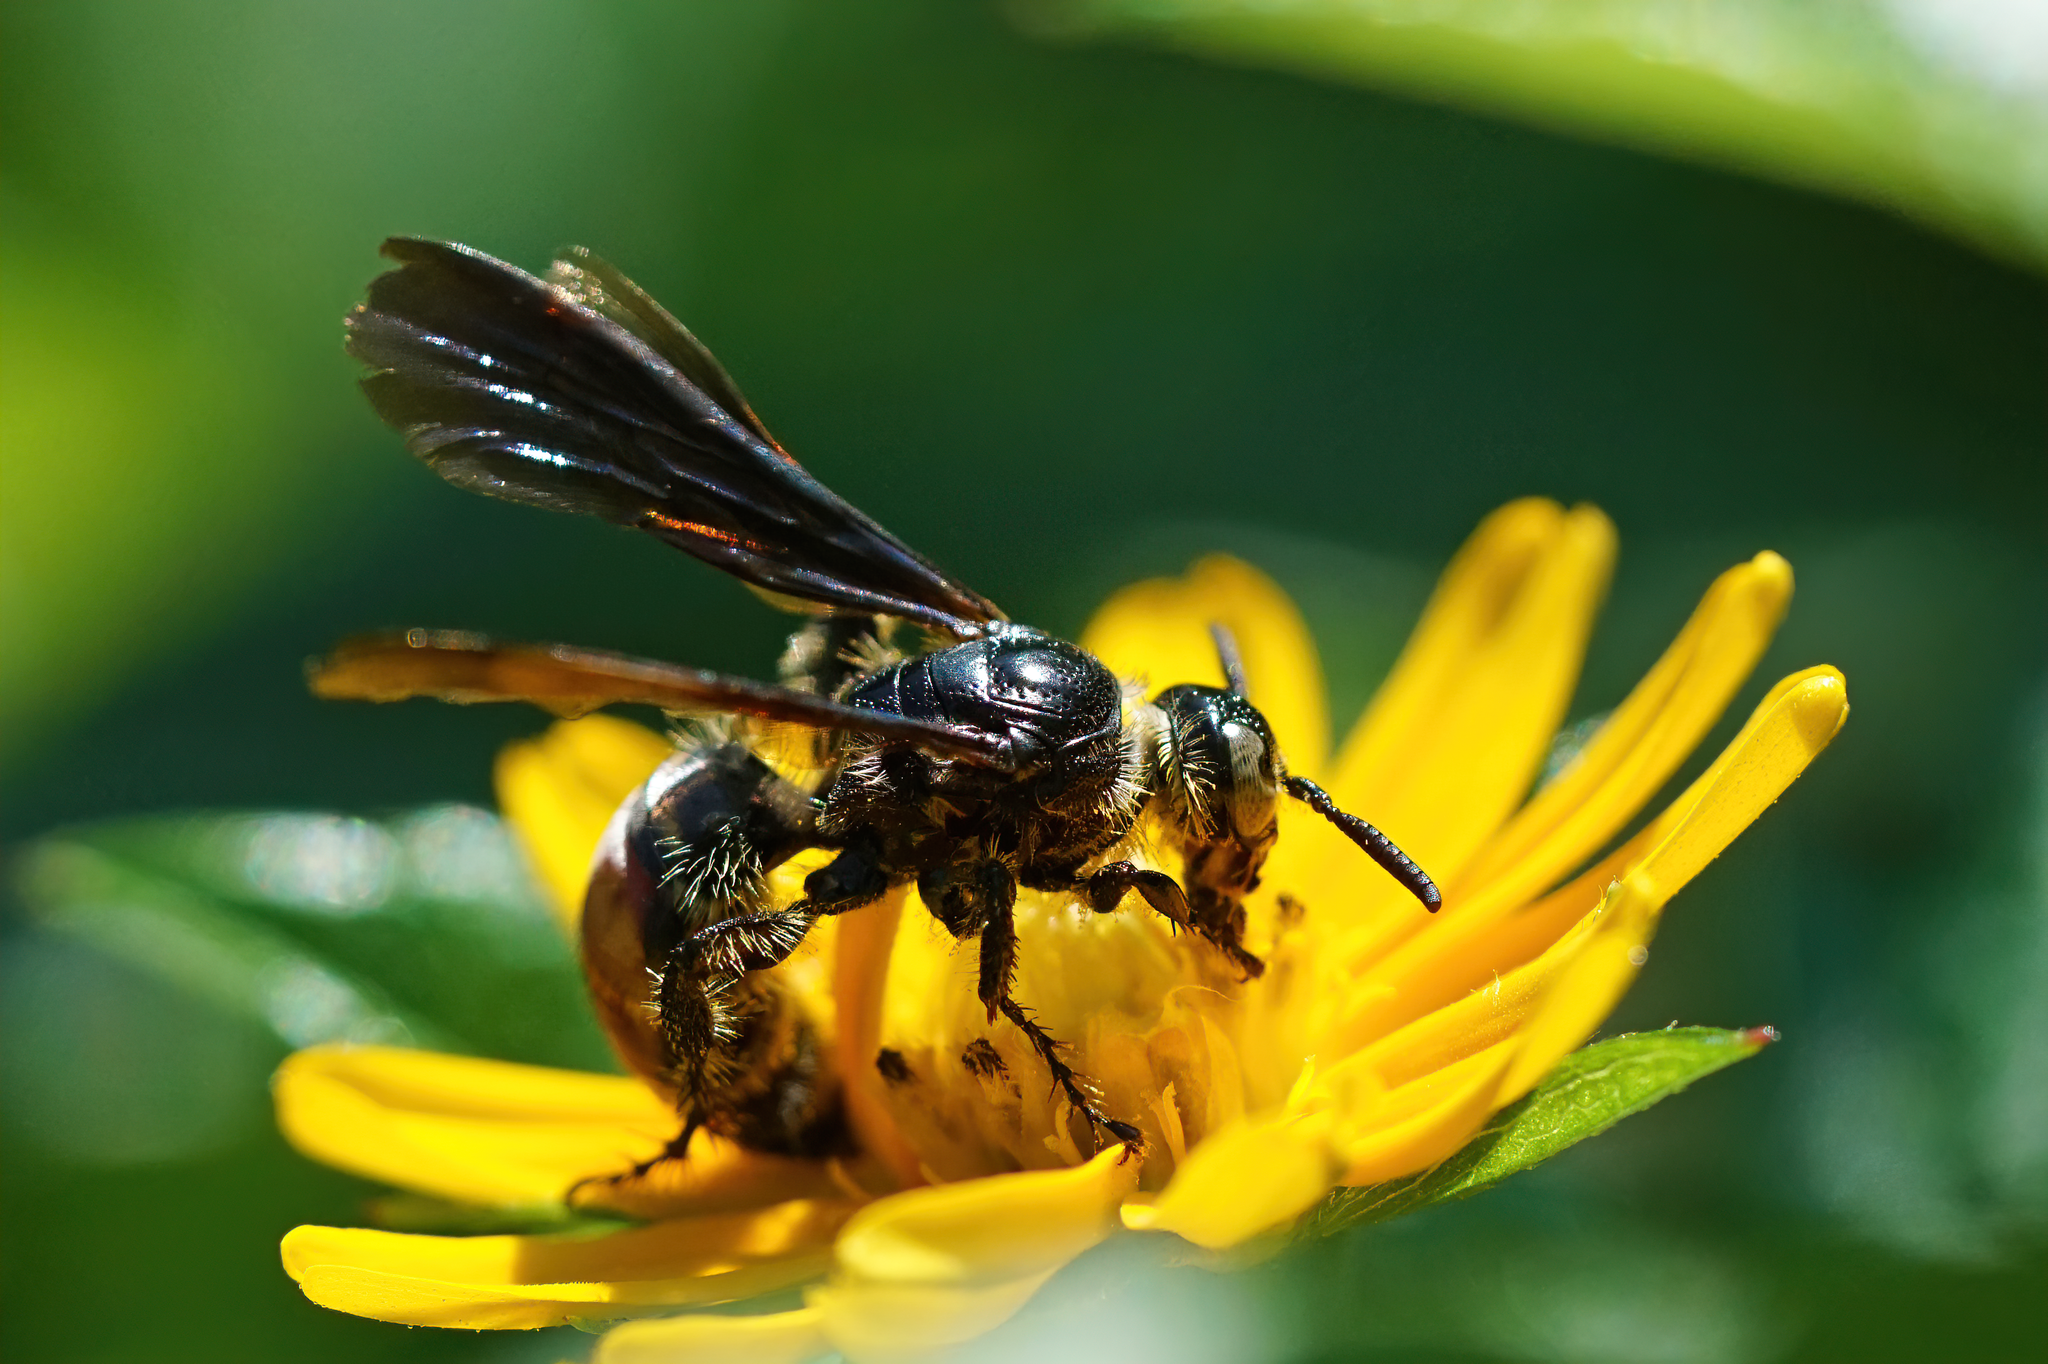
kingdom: Animalia
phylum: Arthropoda
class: Insecta
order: Hymenoptera
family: Scoliidae
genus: Dielis
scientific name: Dielis dorsata
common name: Scoliid wasp
